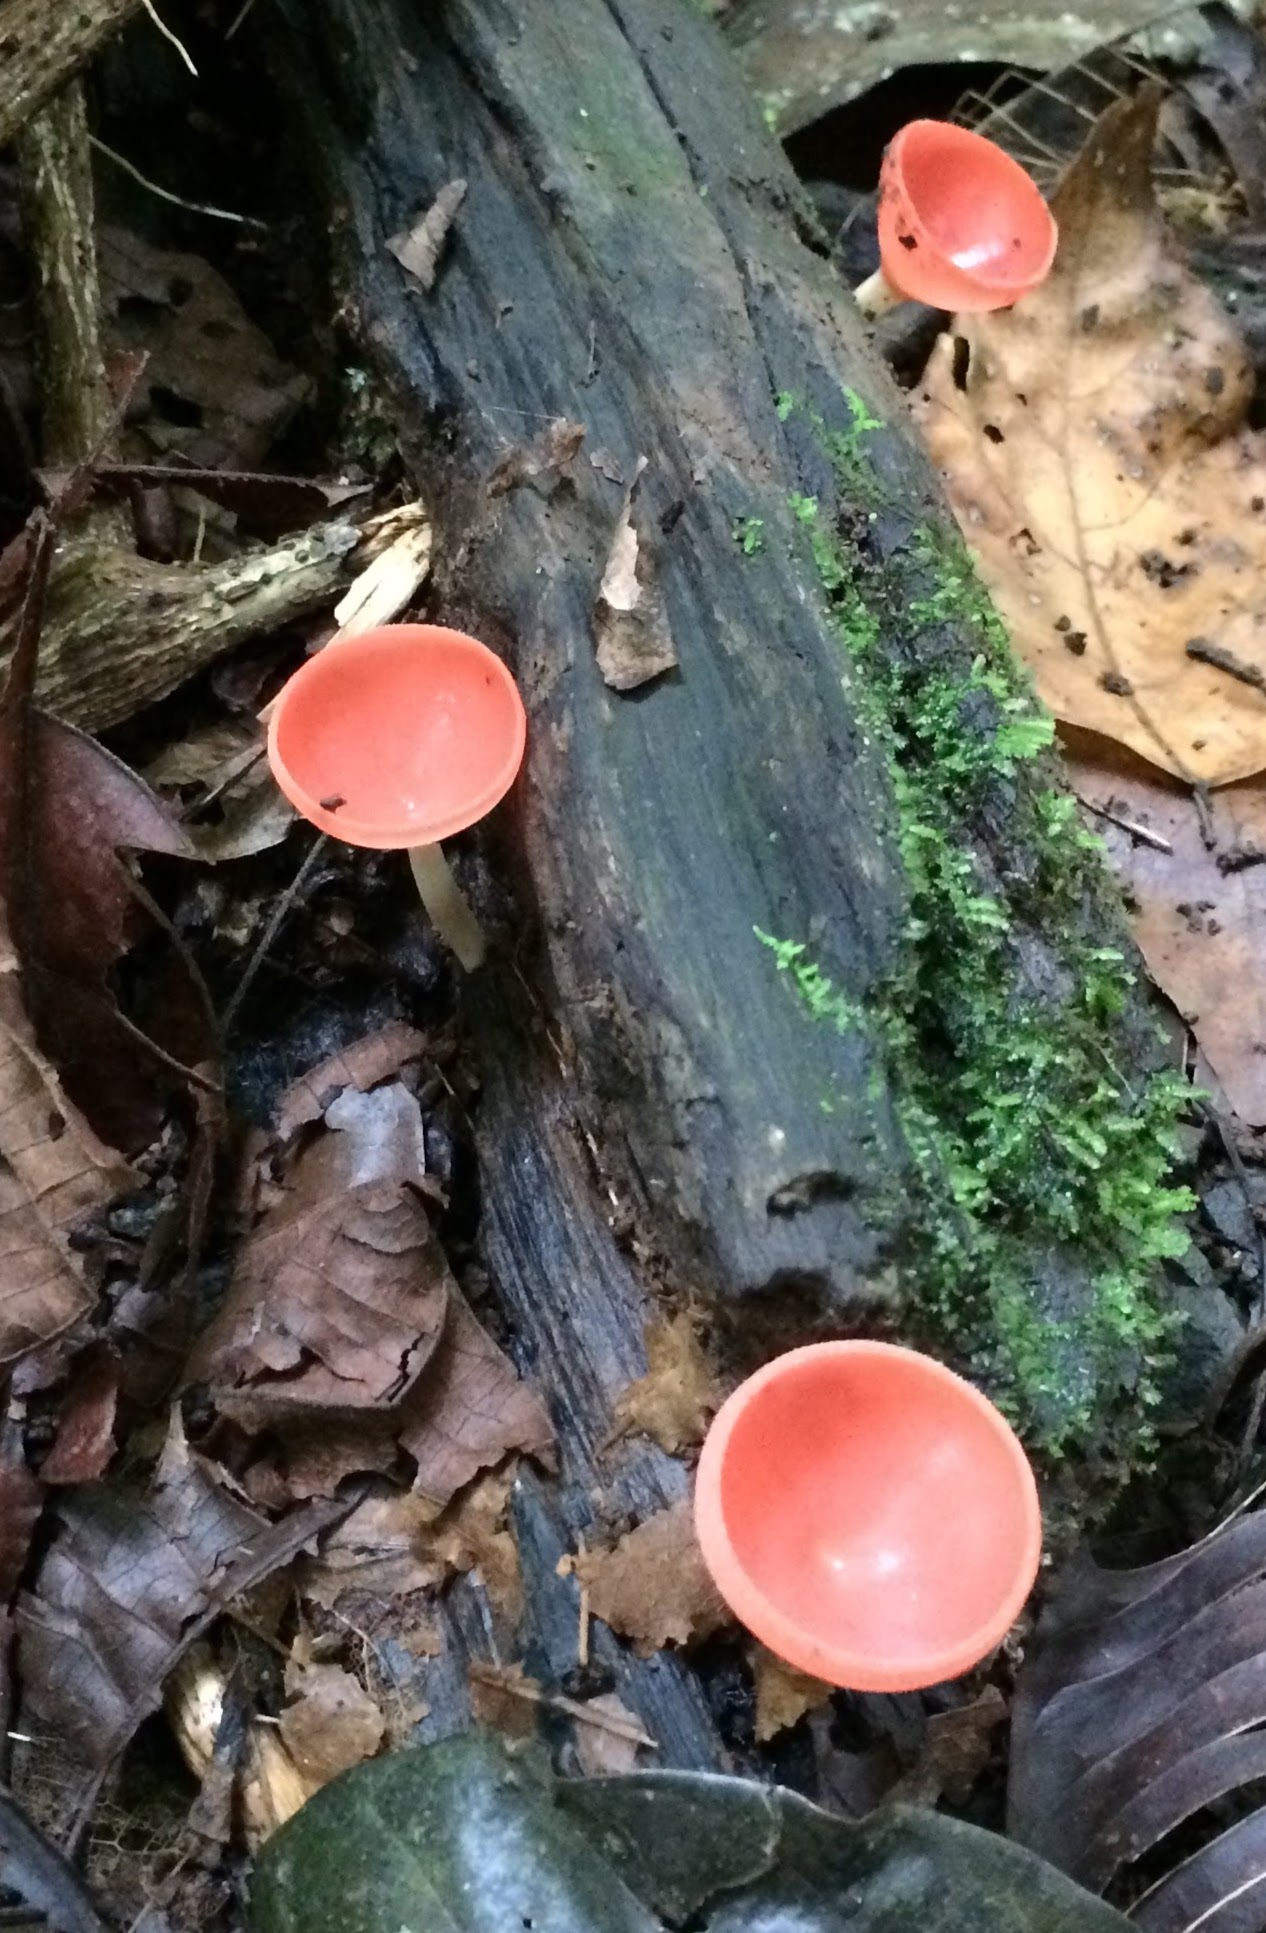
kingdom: Fungi
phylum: Ascomycota
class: Pezizomycetes
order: Pezizales
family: Sarcoscyphaceae
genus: Cookeina
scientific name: Cookeina speciosa
